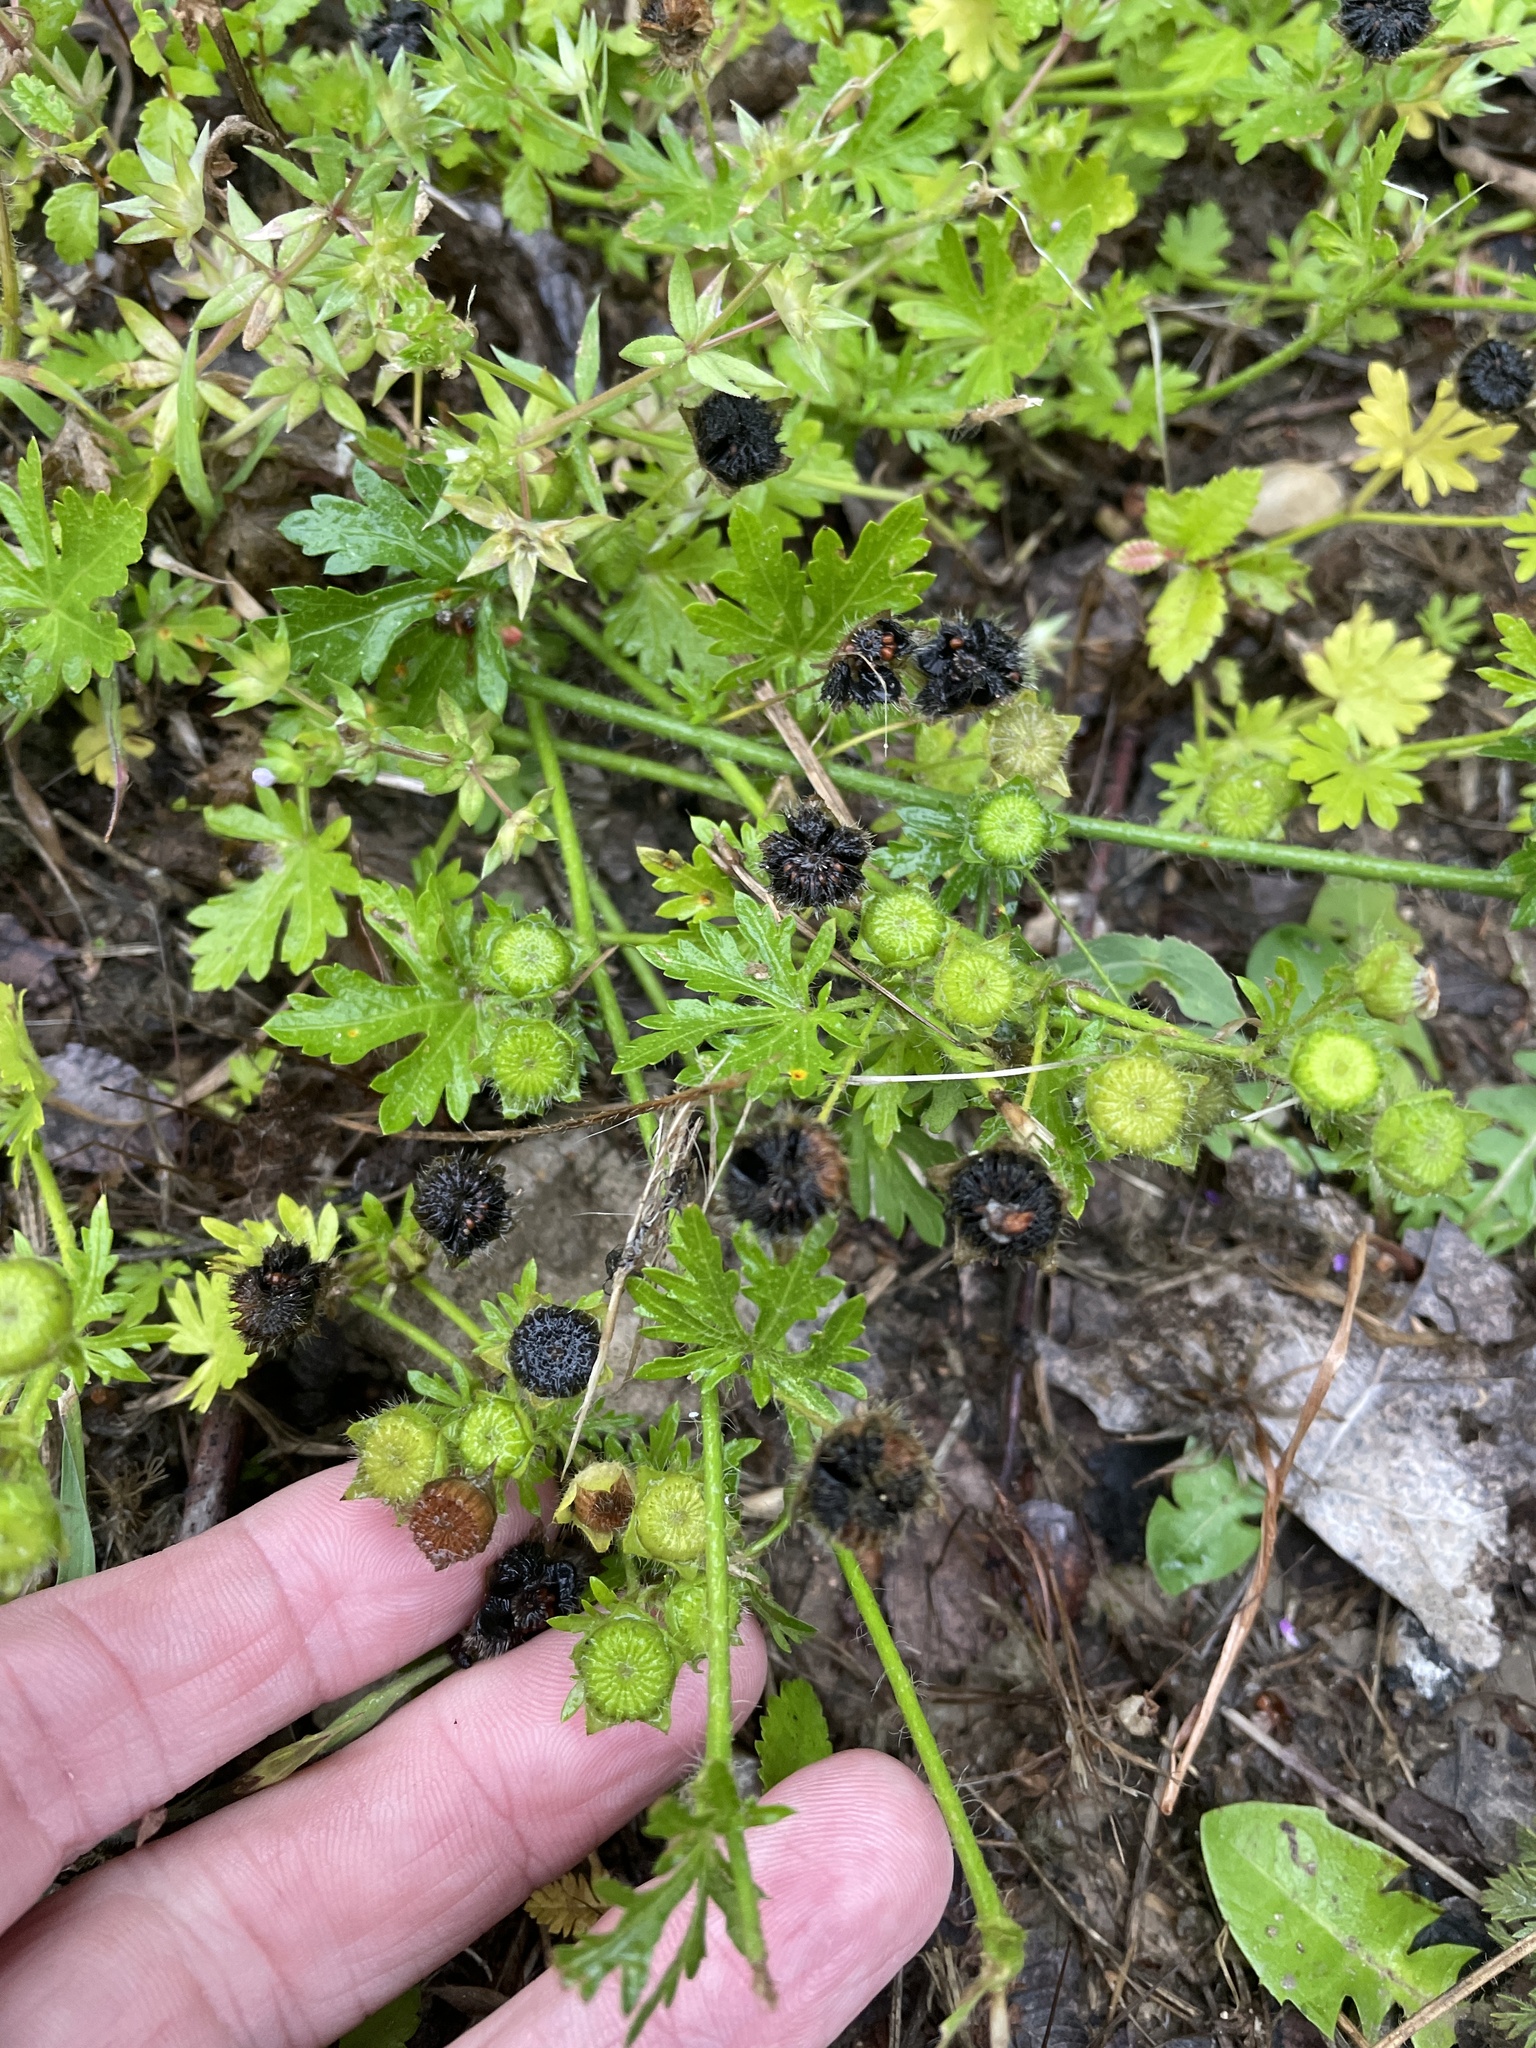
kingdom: Plantae
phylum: Tracheophyta
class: Magnoliopsida
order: Malvales
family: Malvaceae
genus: Modiola
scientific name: Modiola caroliniana
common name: Carolina bristlemallow
